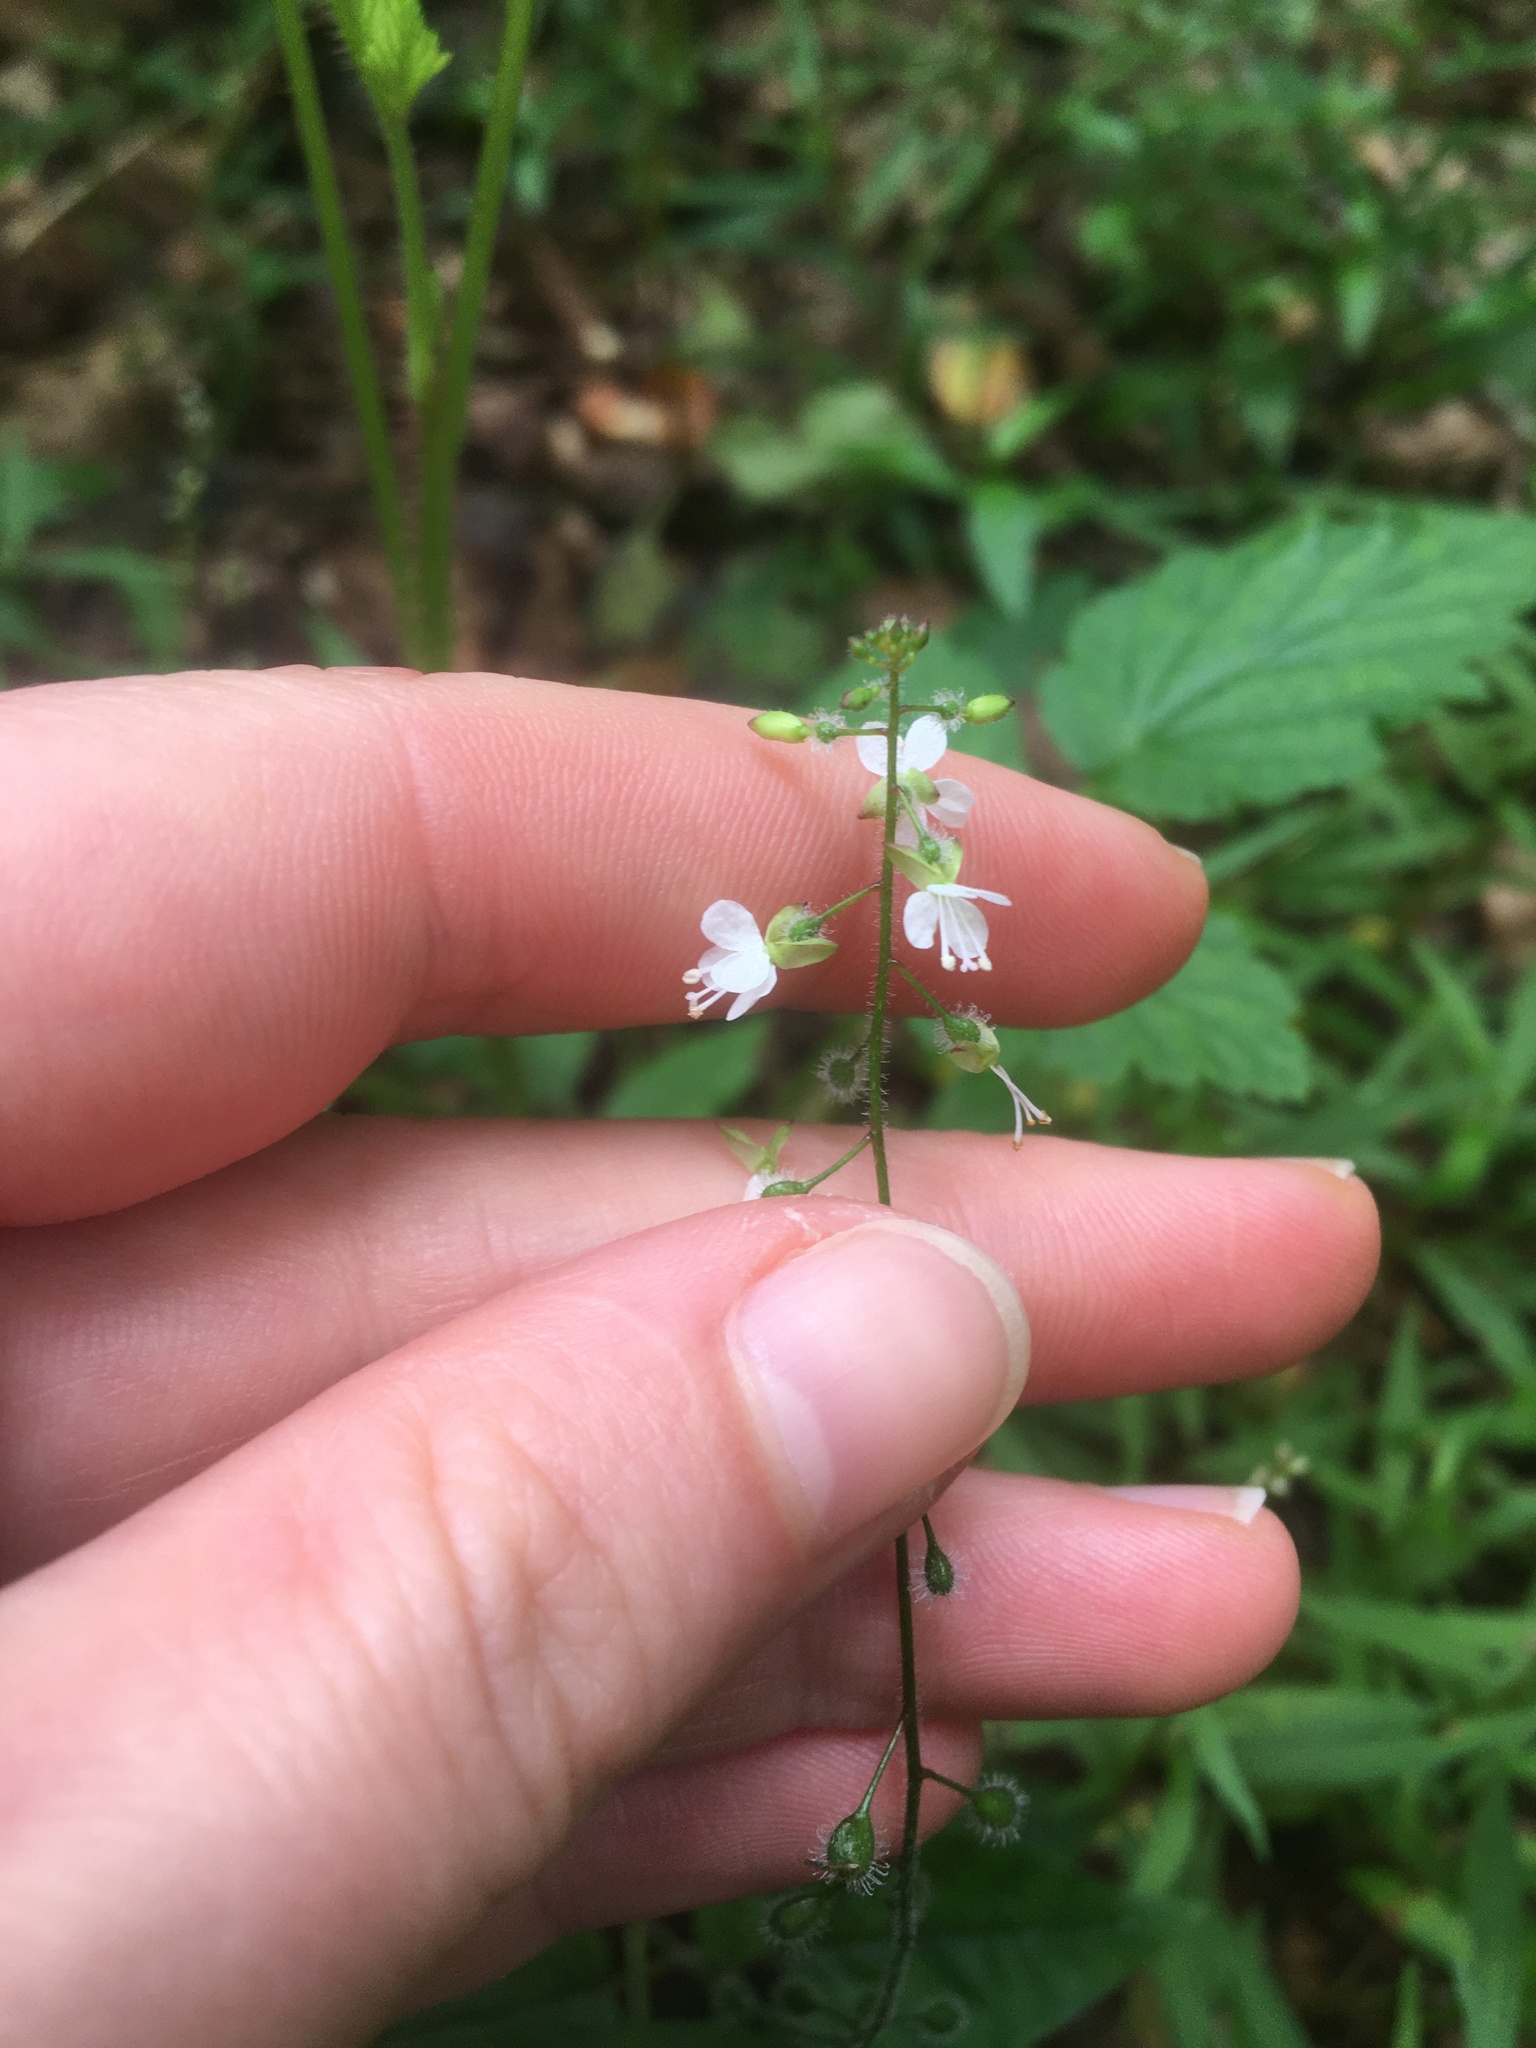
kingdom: Plantae
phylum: Tracheophyta
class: Magnoliopsida
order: Myrtales
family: Onagraceae
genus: Circaea
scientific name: Circaea lutetiana
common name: Enchanter's-nightshade
